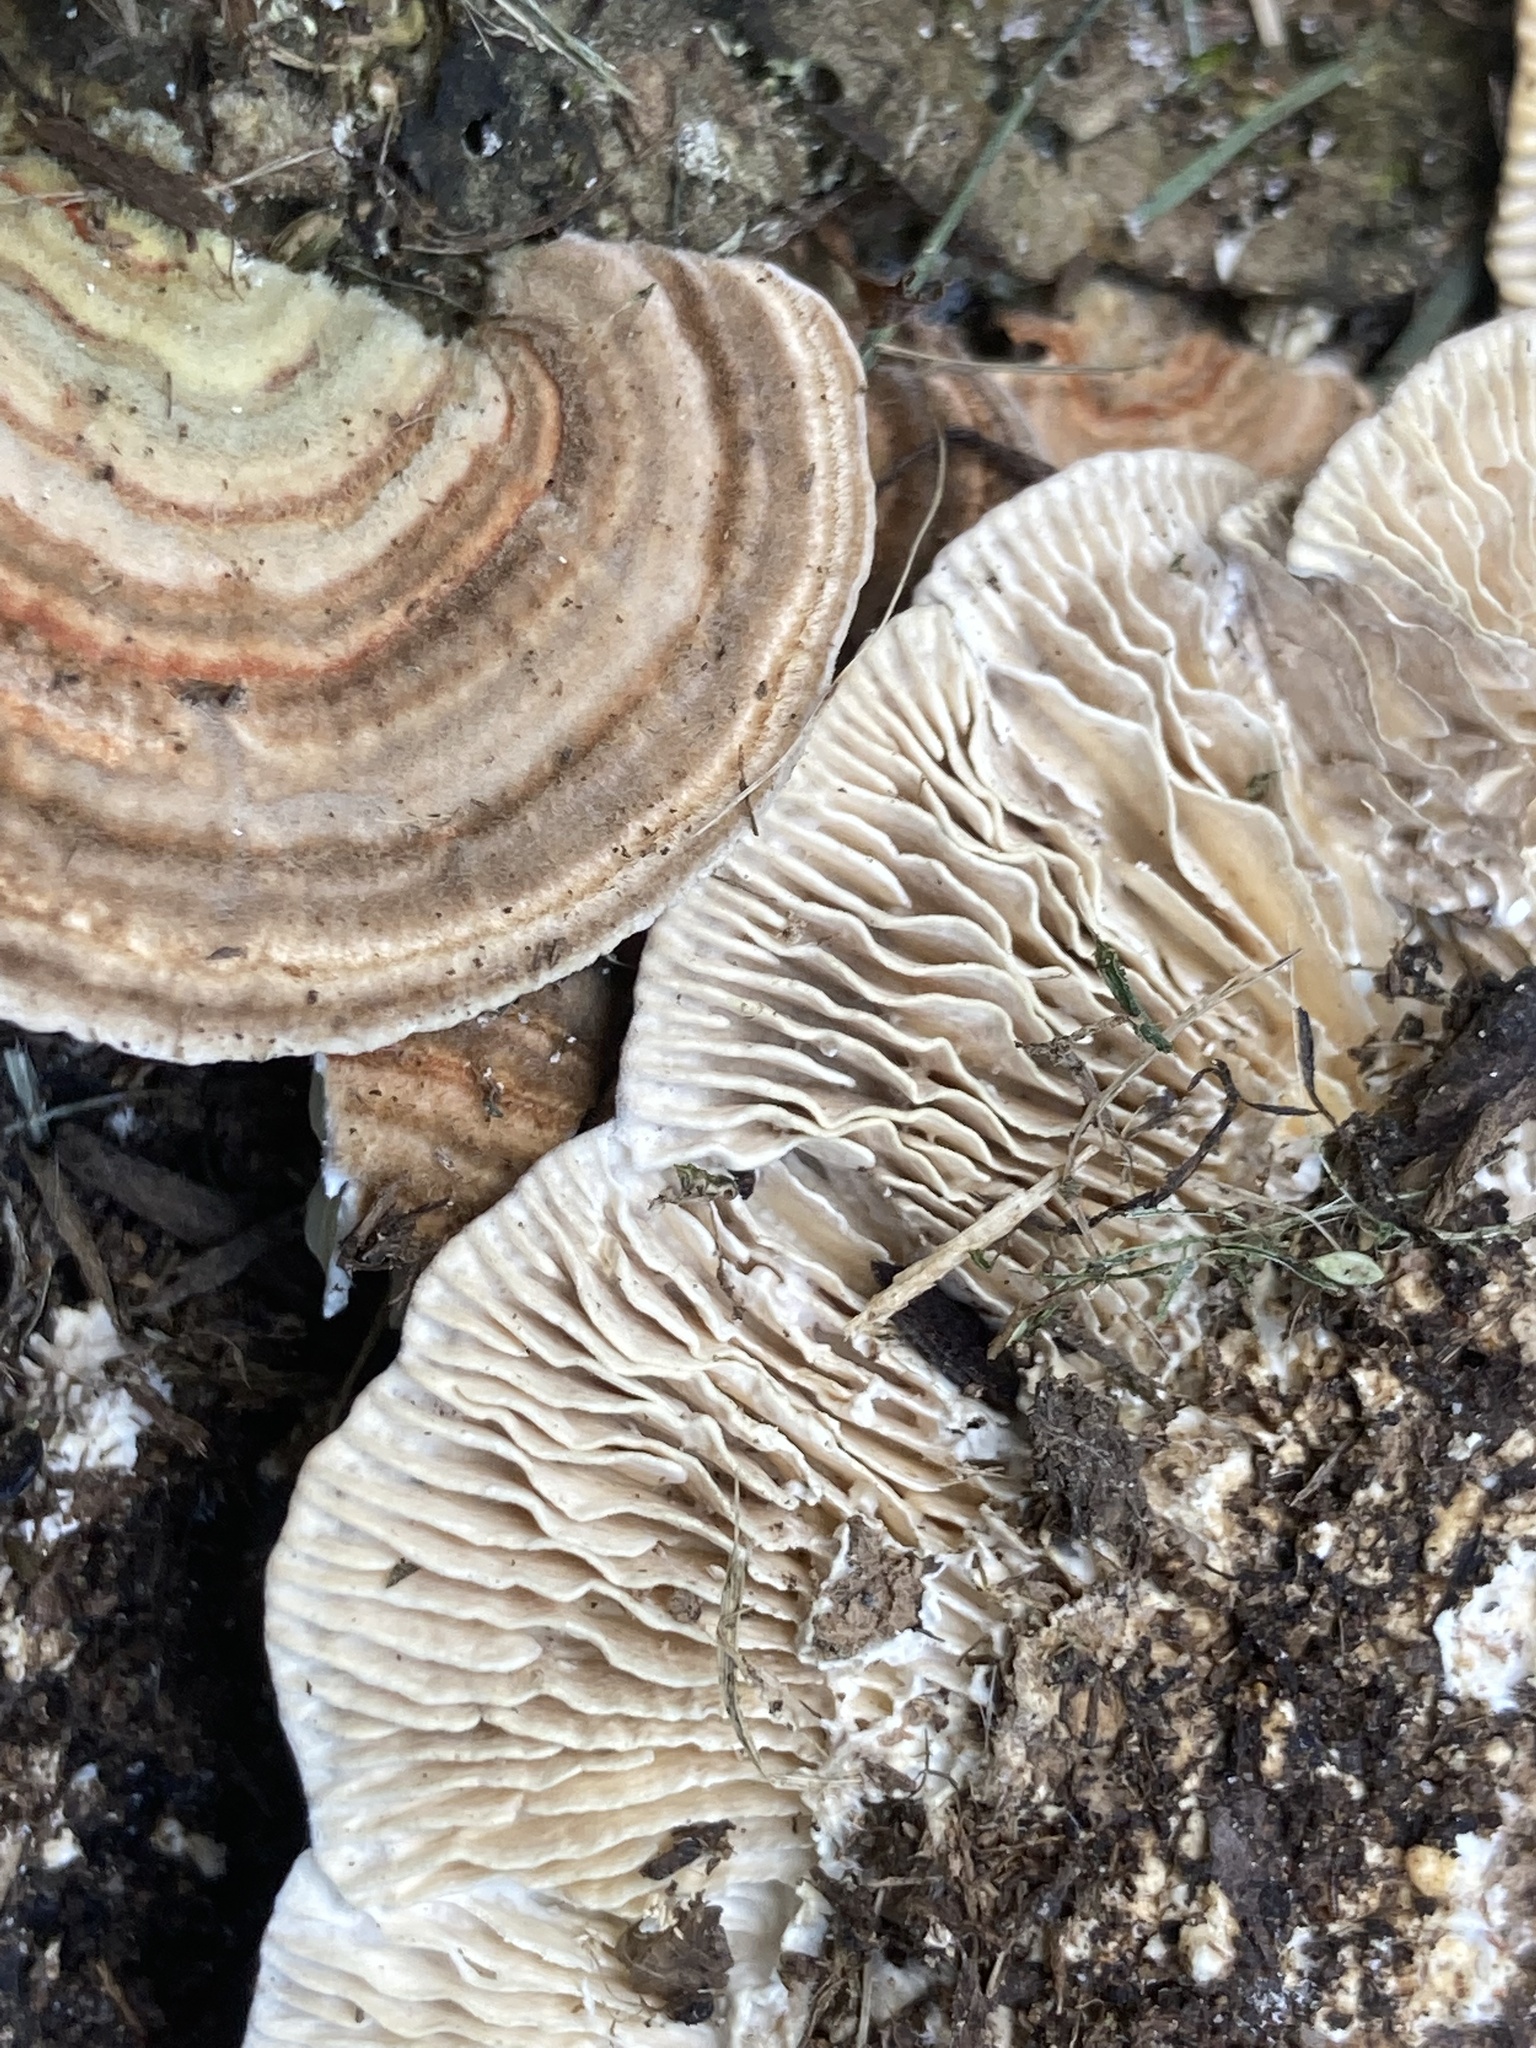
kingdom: Fungi
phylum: Basidiomycota
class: Agaricomycetes
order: Polyporales
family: Polyporaceae
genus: Lenzites
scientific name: Lenzites betulinus
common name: Birch mazegill
